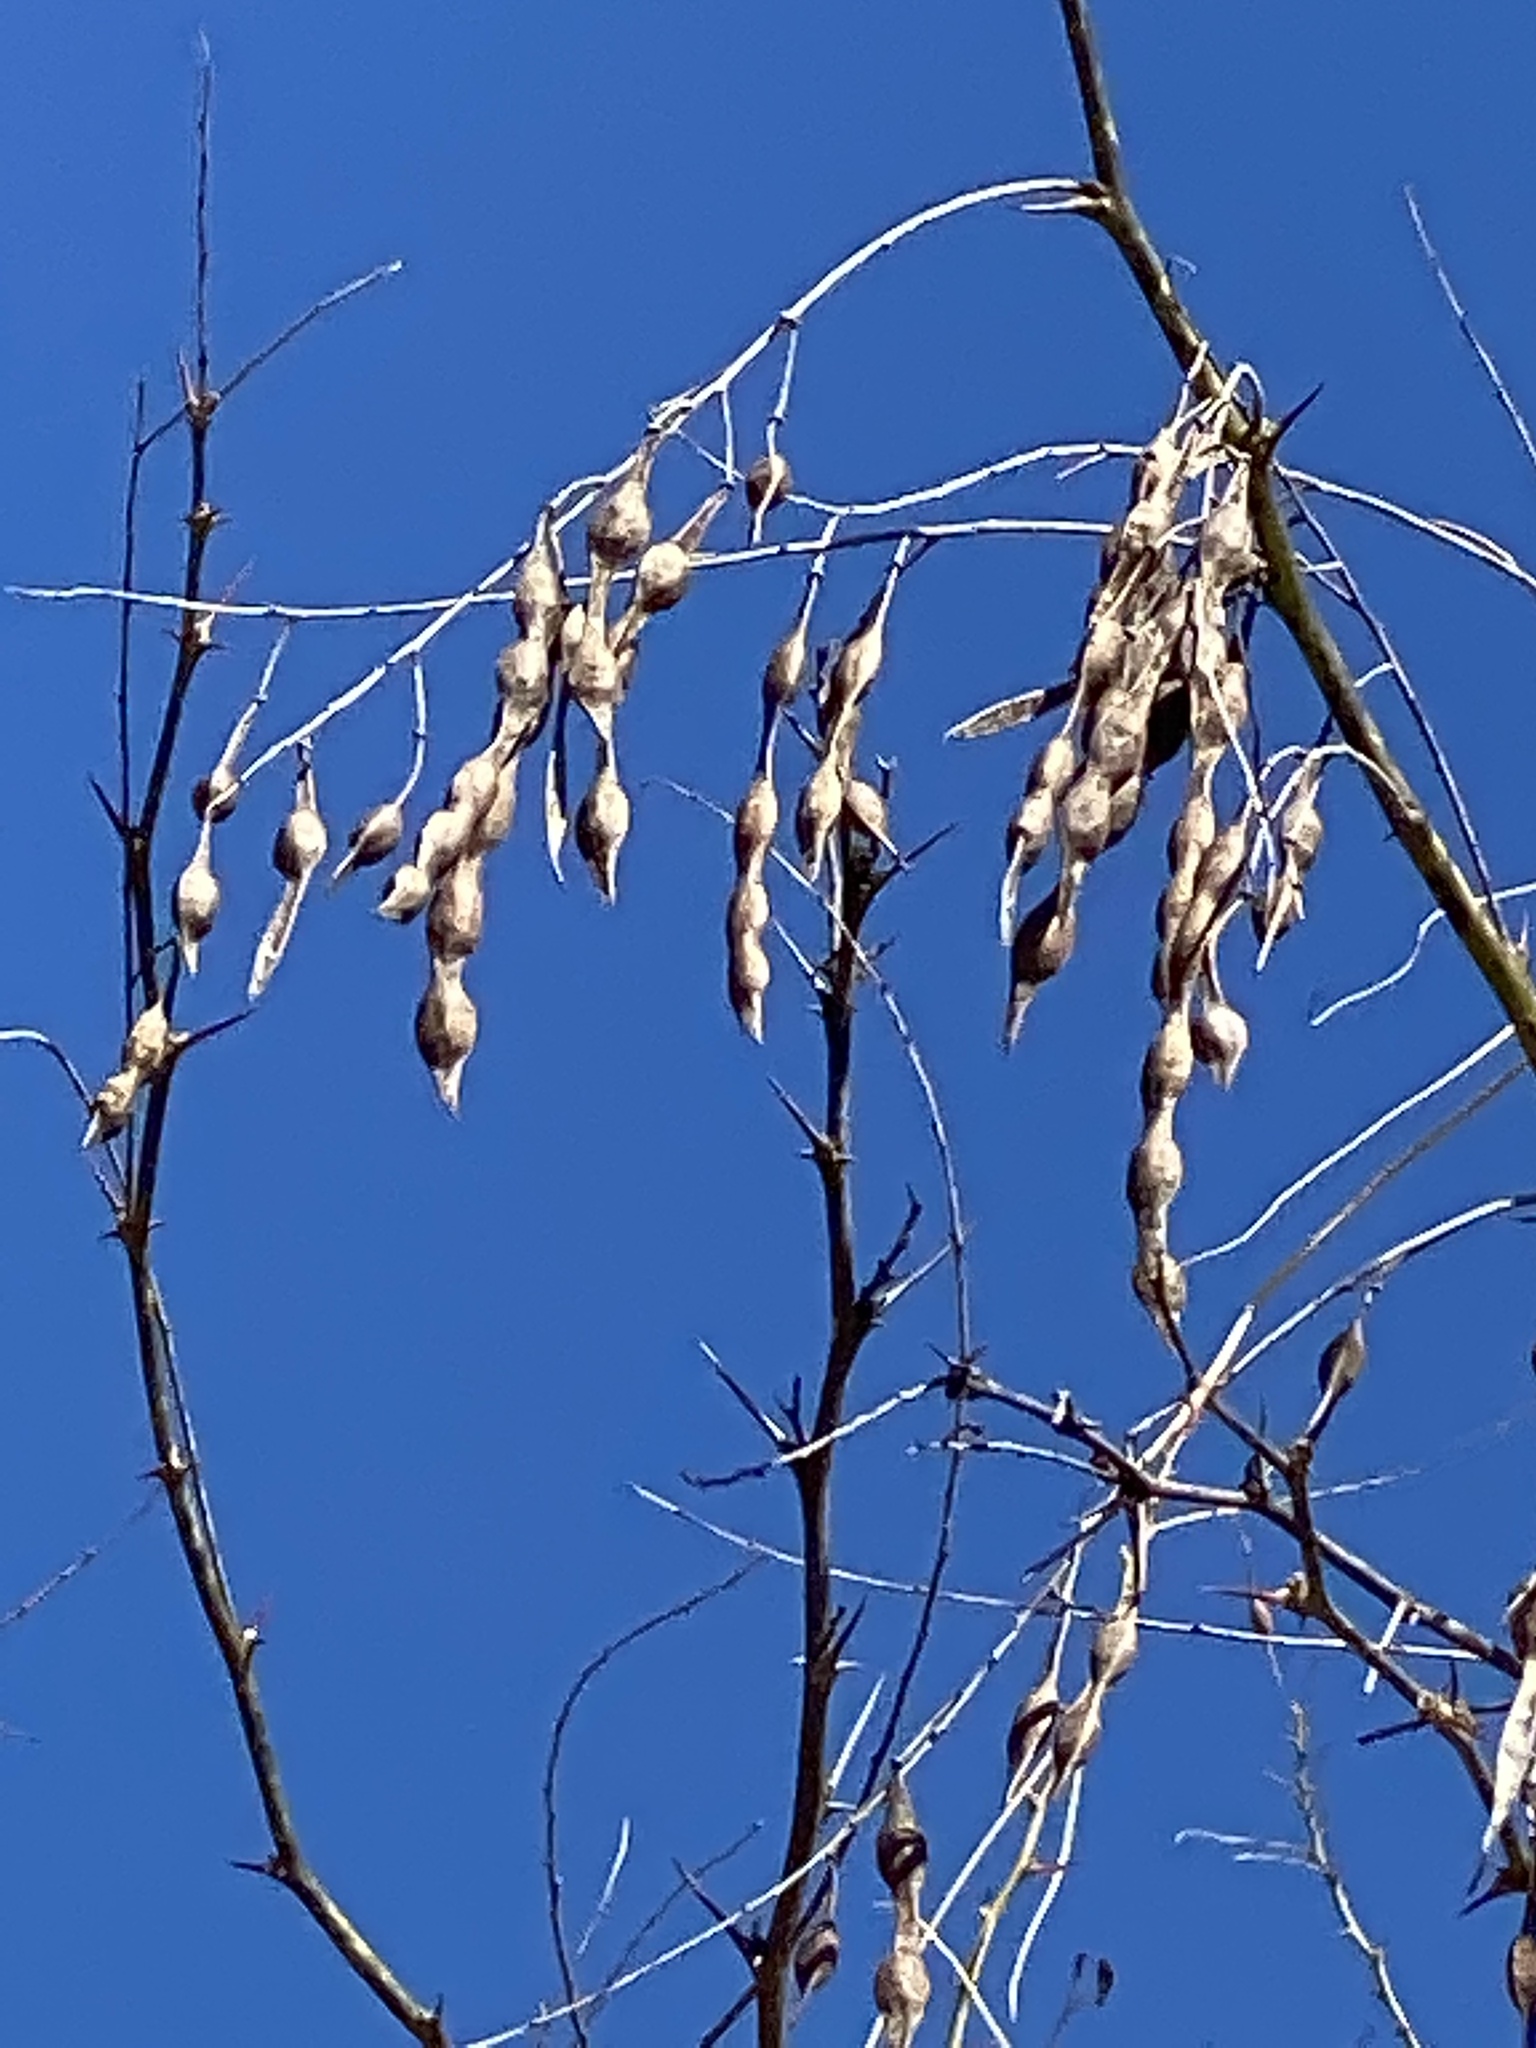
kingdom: Plantae
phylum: Tracheophyta
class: Magnoliopsida
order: Fabales
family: Fabaceae
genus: Parkinsonia
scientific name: Parkinsonia aculeata
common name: Jerusalem thorn
